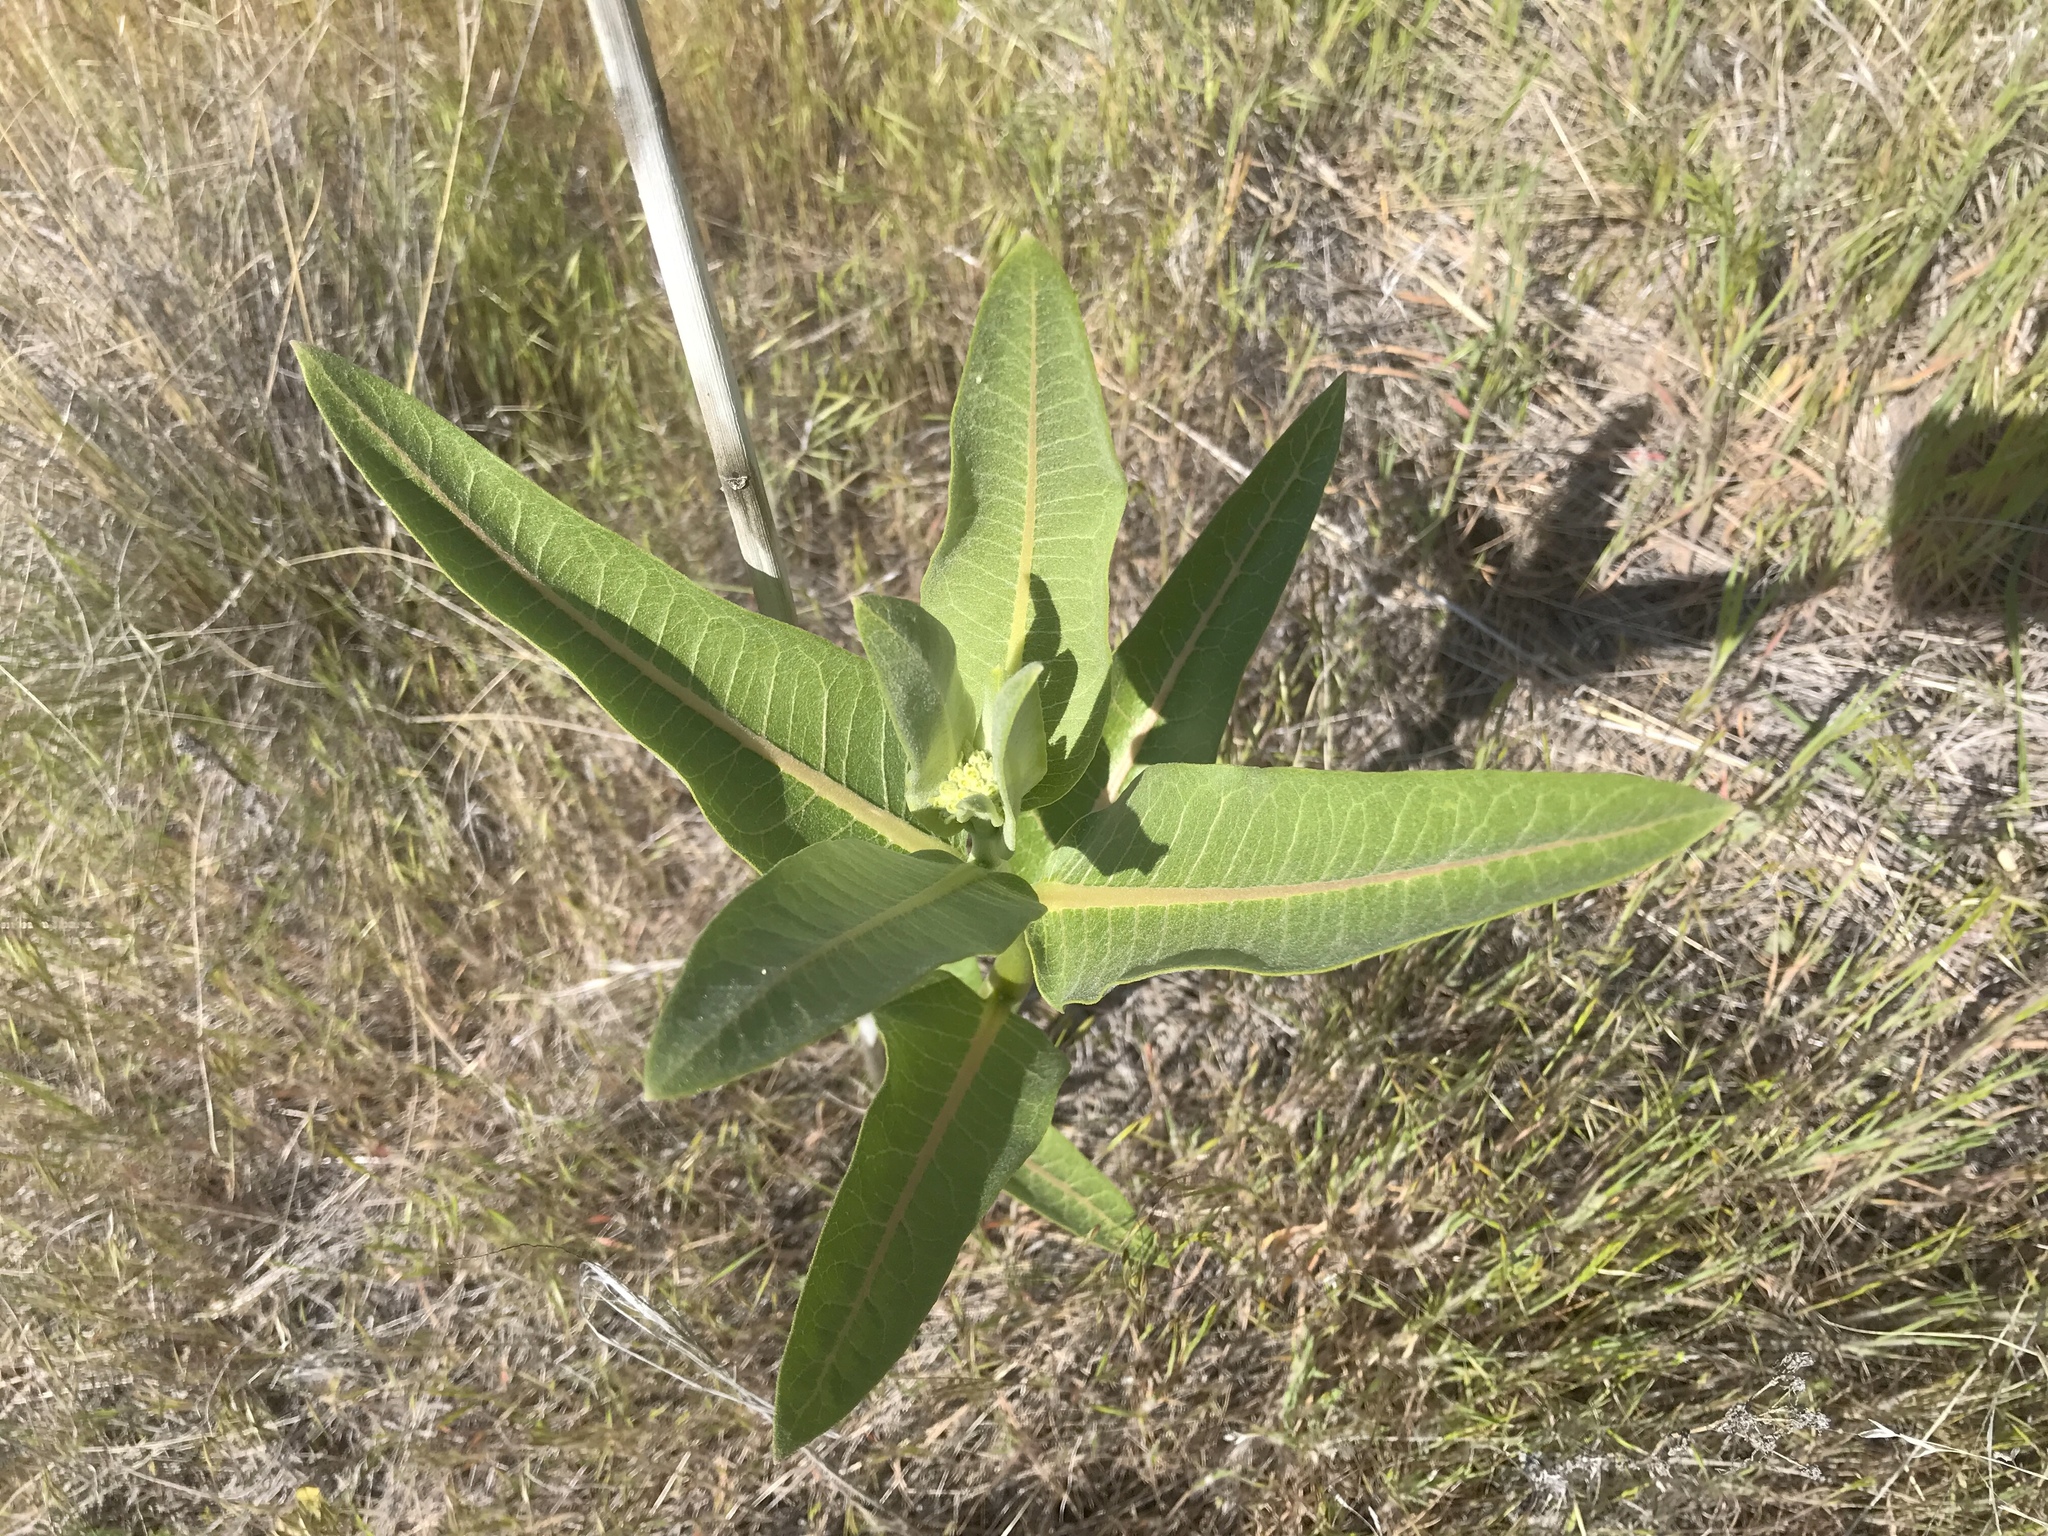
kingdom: Plantae
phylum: Tracheophyta
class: Magnoliopsida
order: Gentianales
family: Apocynaceae
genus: Asclepias
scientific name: Asclepias speciosa
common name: Showy milkweed
